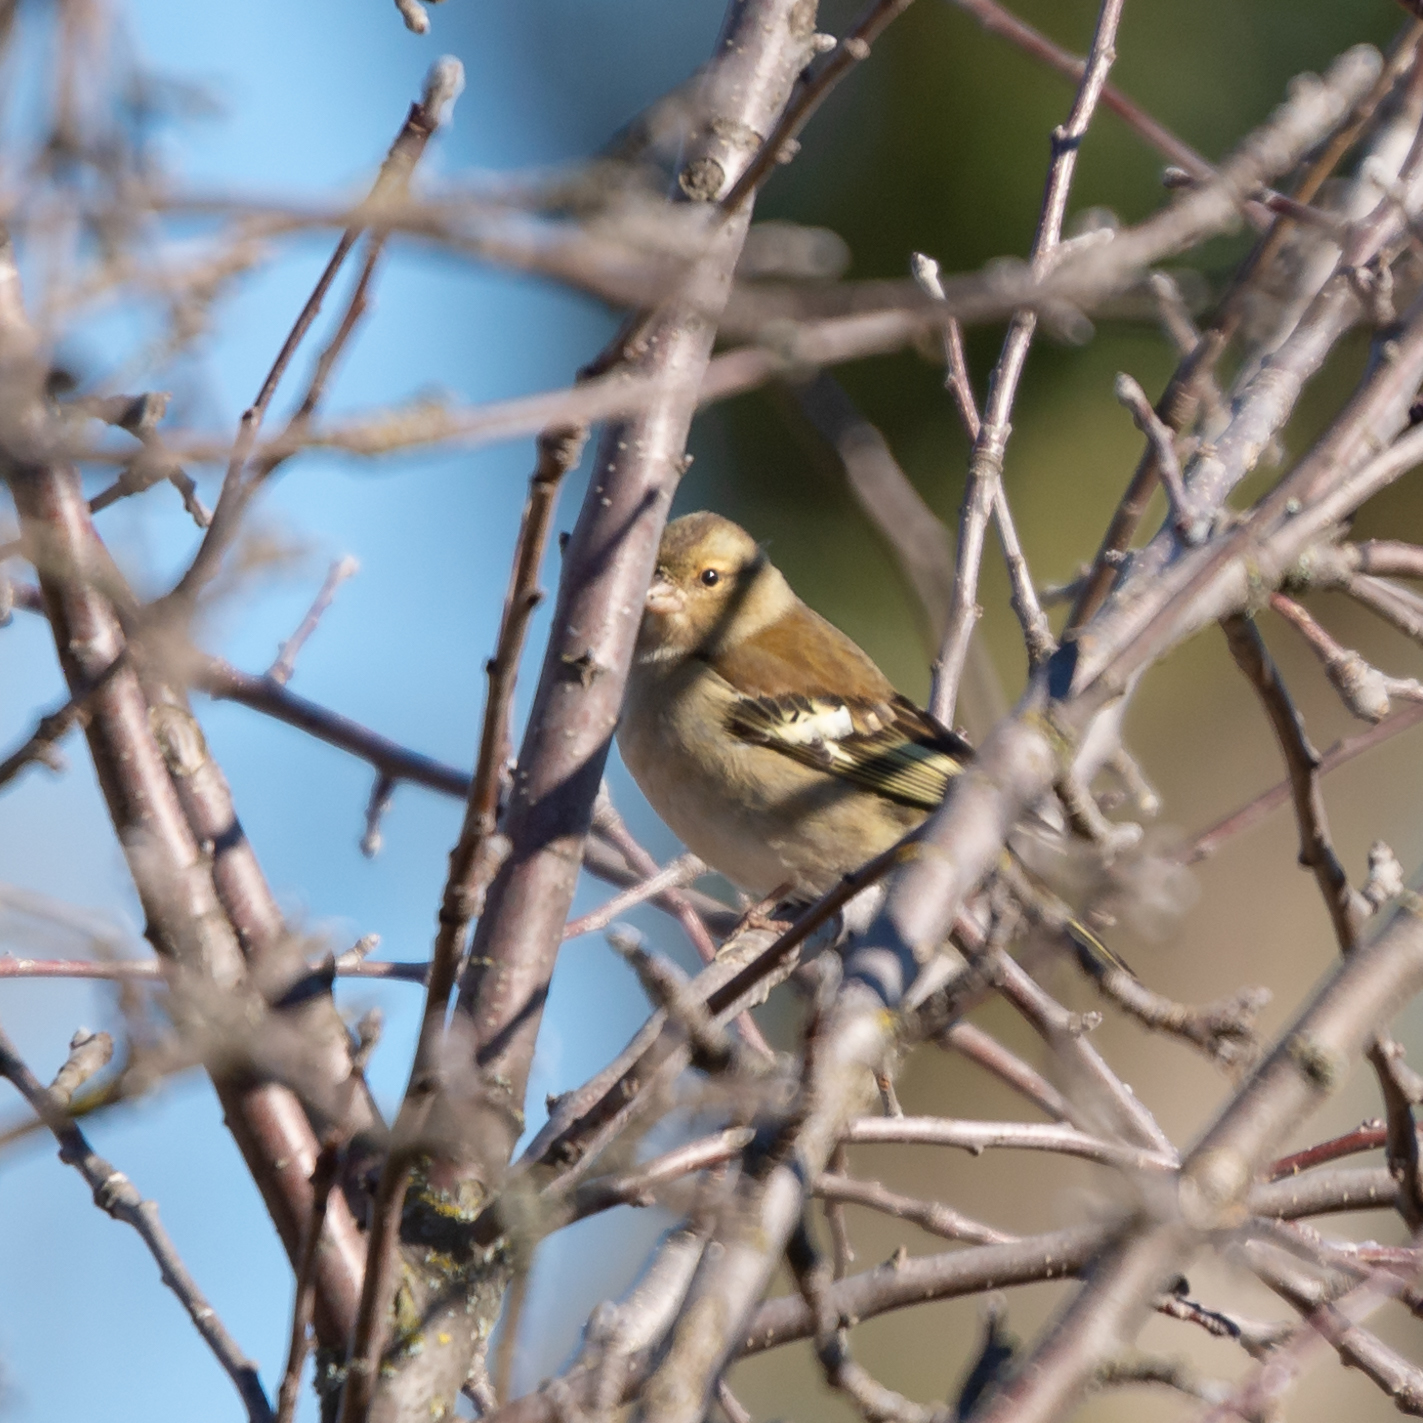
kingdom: Animalia
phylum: Chordata
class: Aves
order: Passeriformes
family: Fringillidae
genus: Fringilla
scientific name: Fringilla coelebs
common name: Common chaffinch
